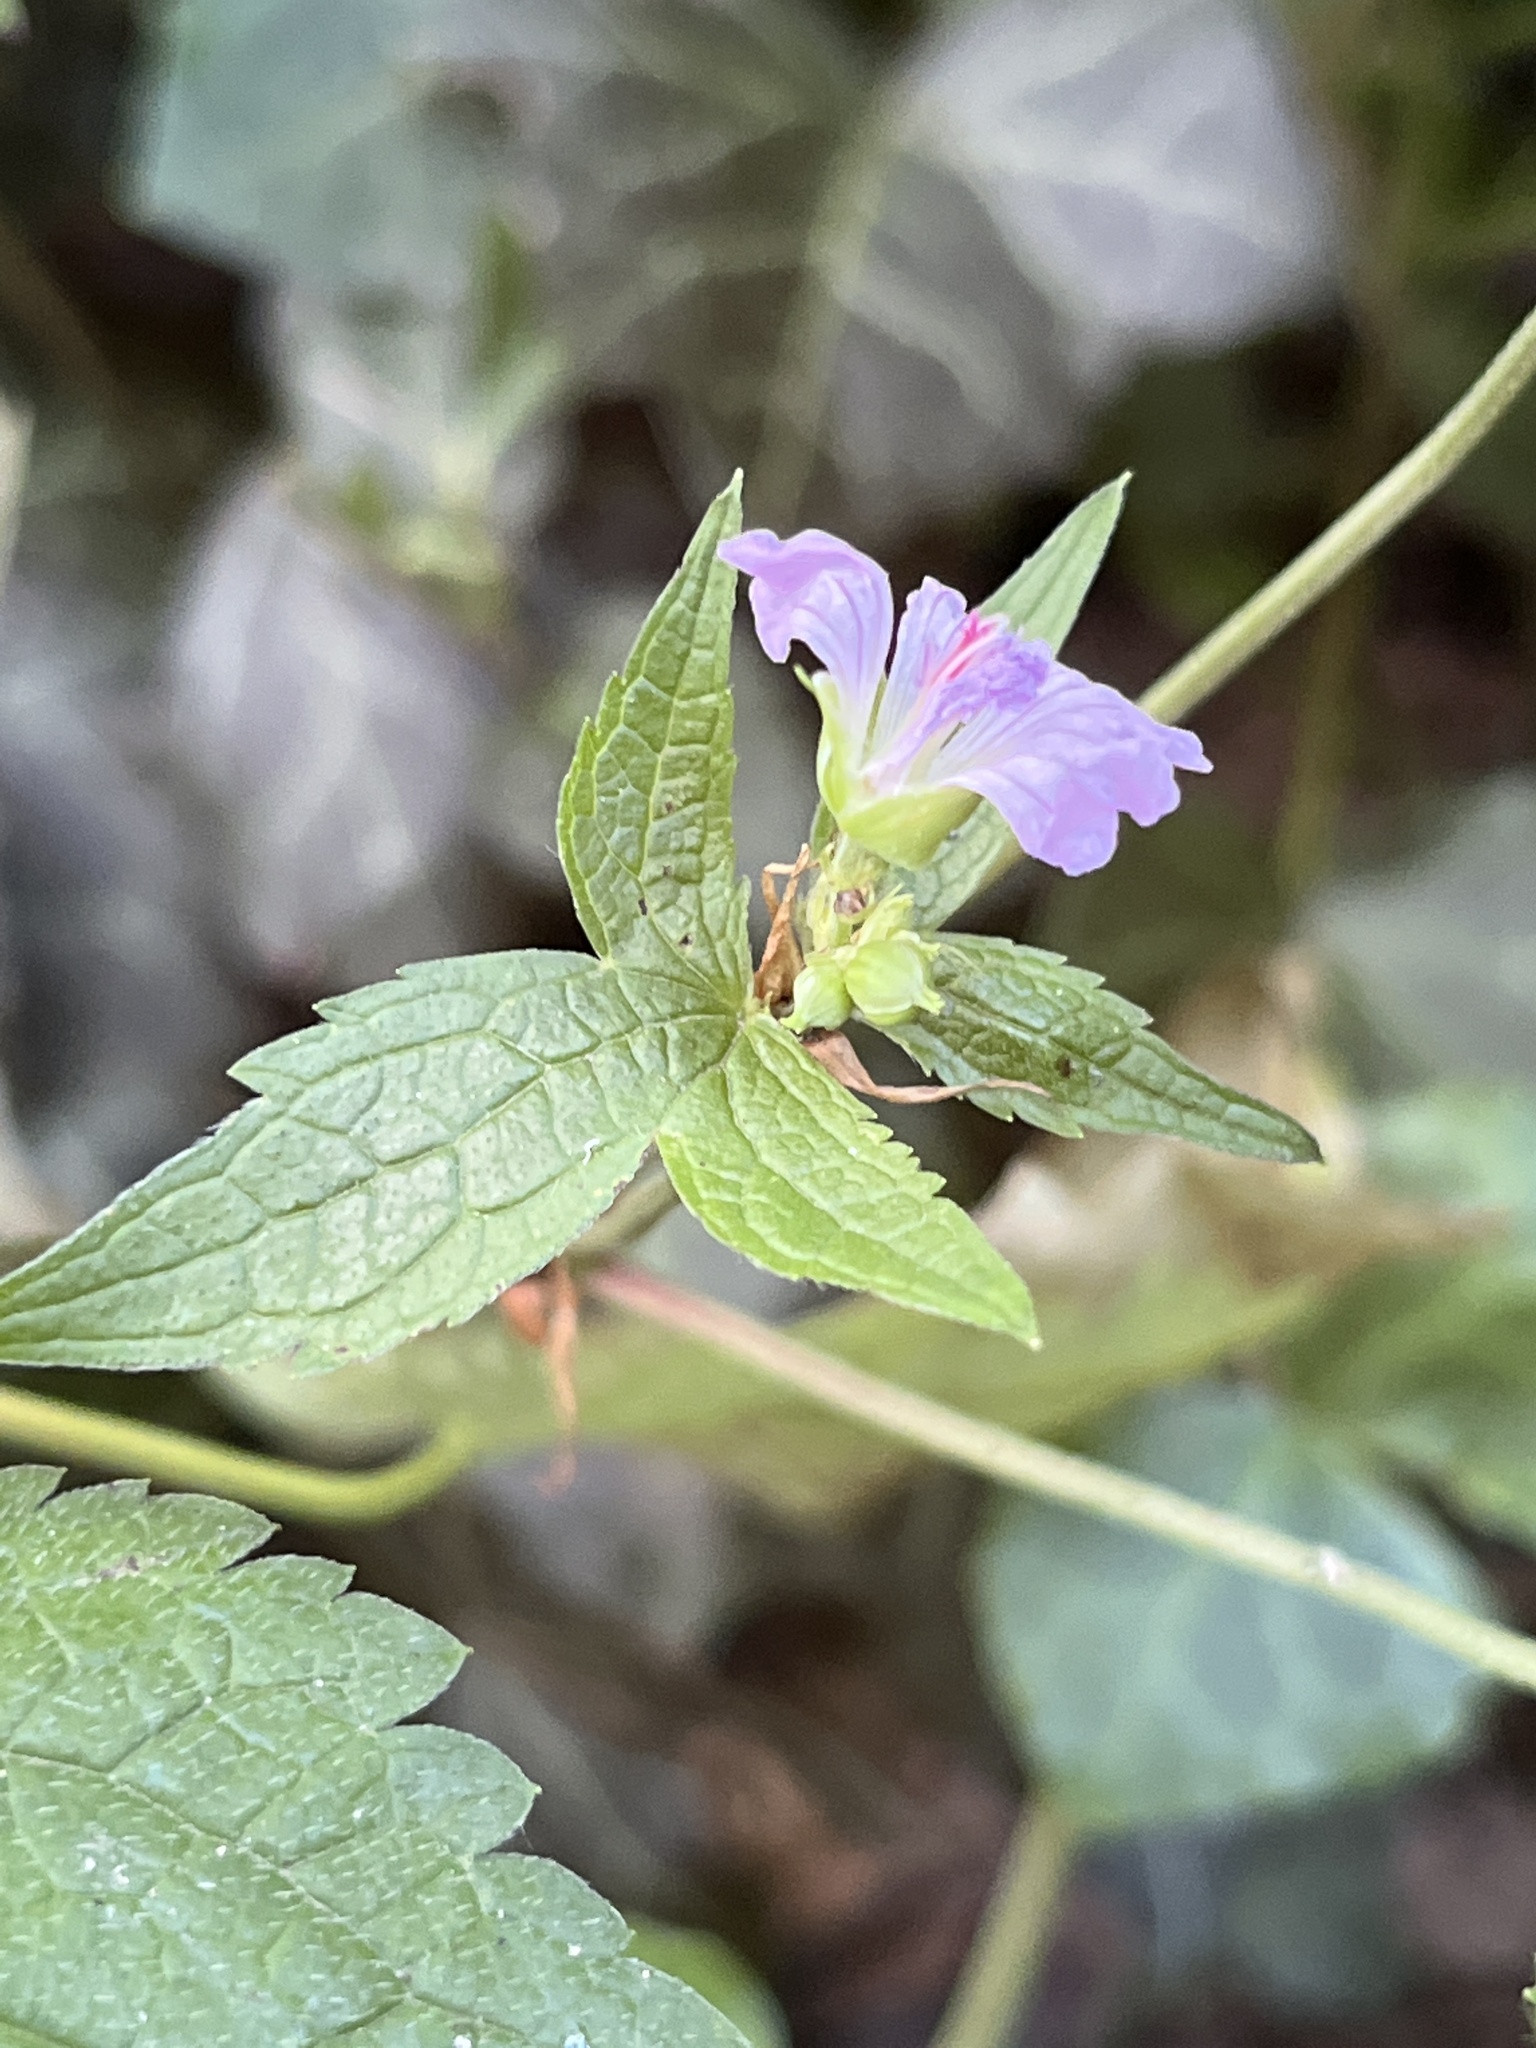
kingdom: Plantae
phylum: Tracheophyta
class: Magnoliopsida
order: Geraniales
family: Geraniaceae
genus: Geranium
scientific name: Geranium nodosum
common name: Knotted crane's-bill
